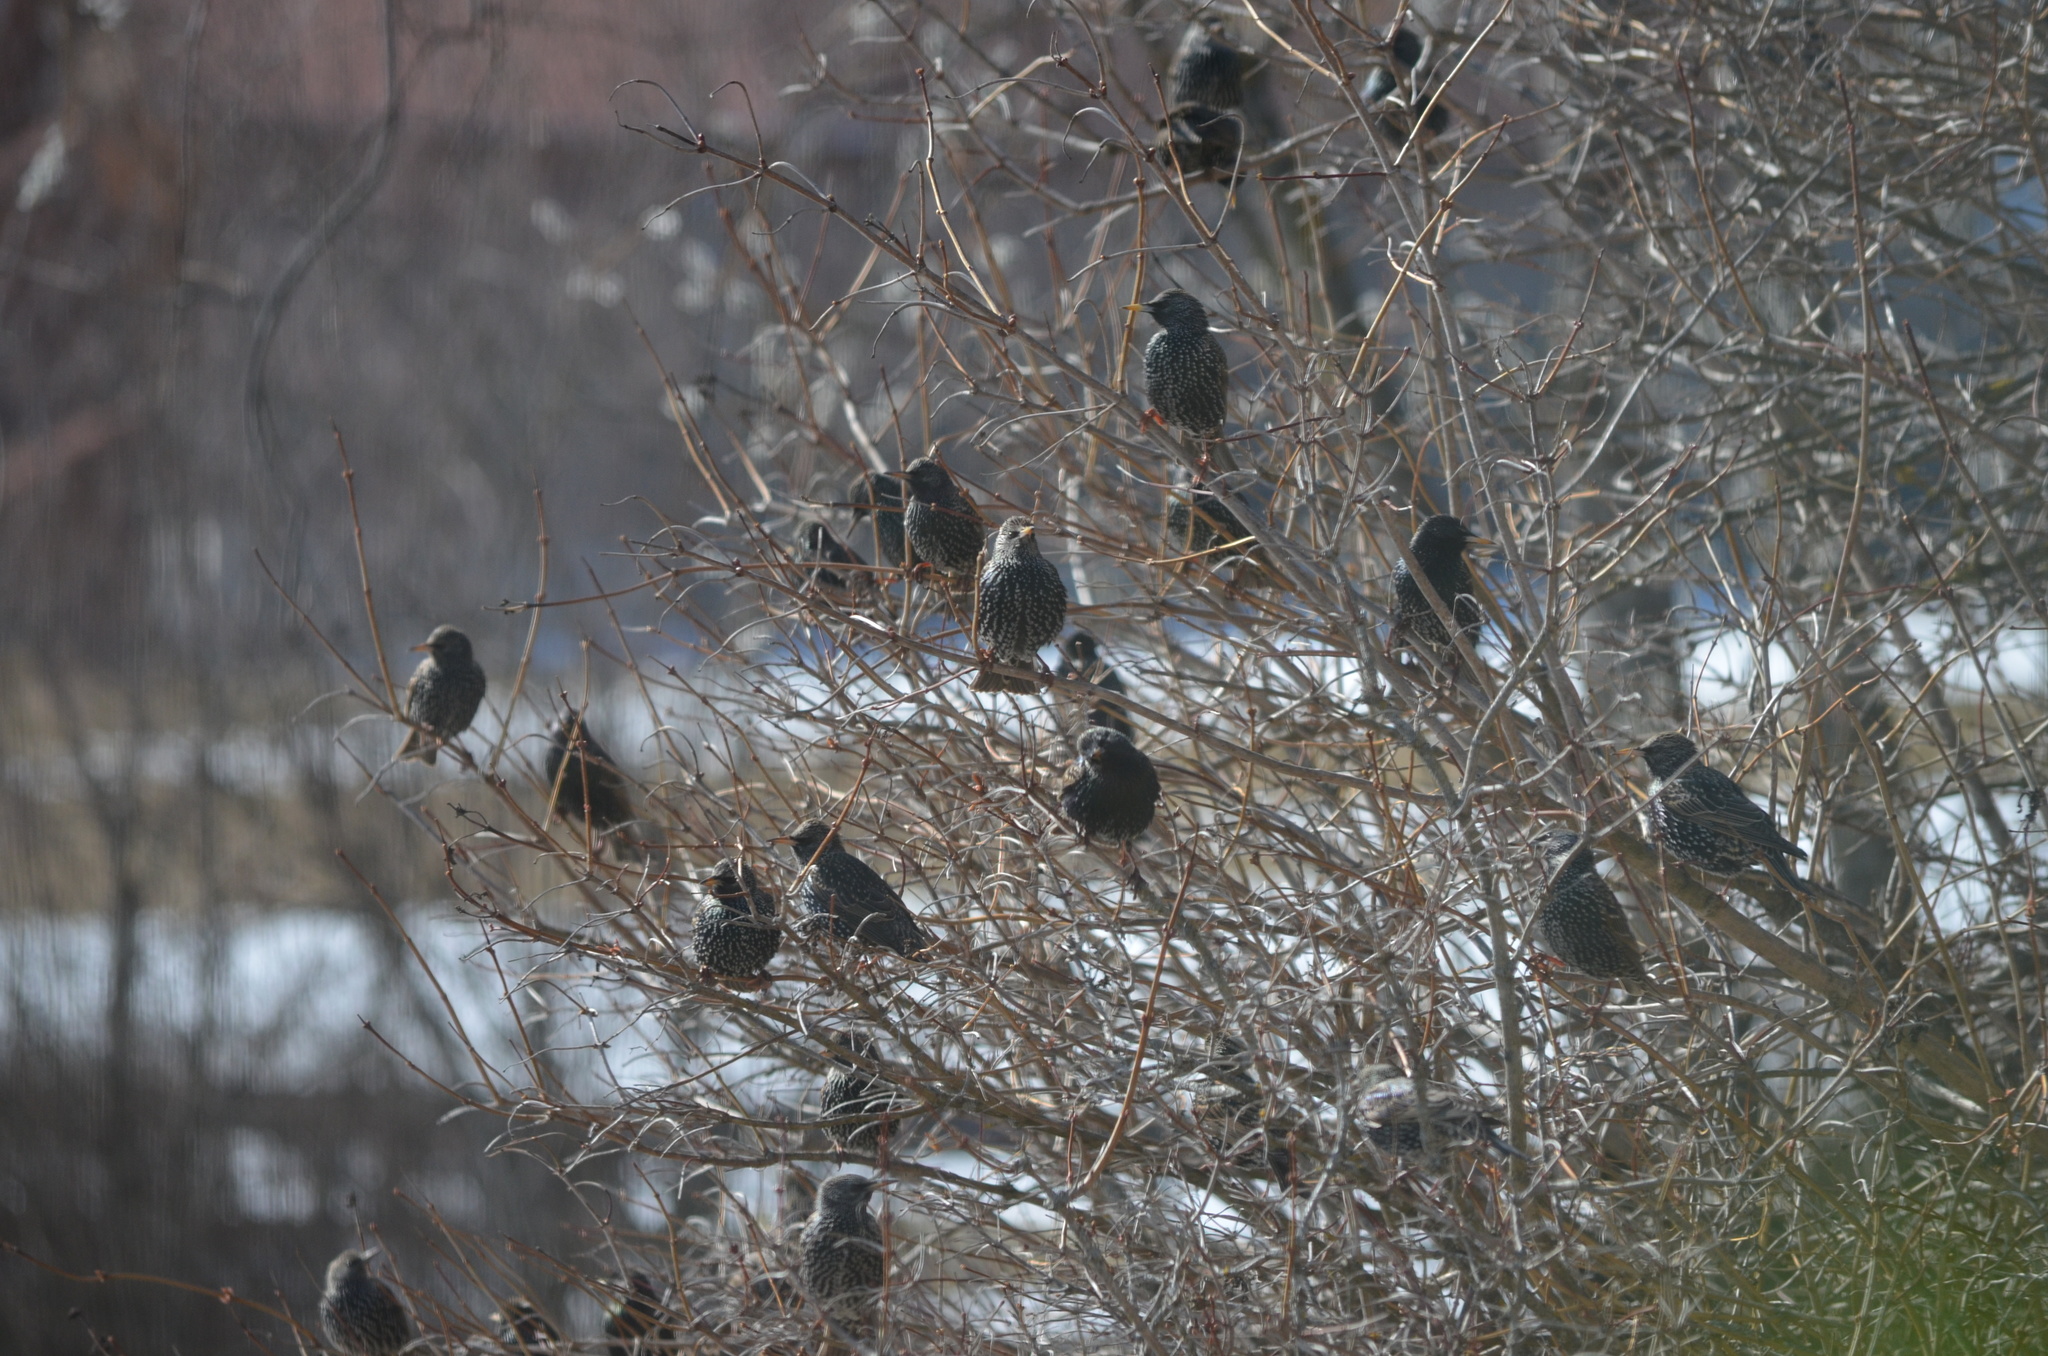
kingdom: Animalia
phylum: Chordata
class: Aves
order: Passeriformes
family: Sturnidae
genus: Sturnus
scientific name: Sturnus vulgaris
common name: Common starling
